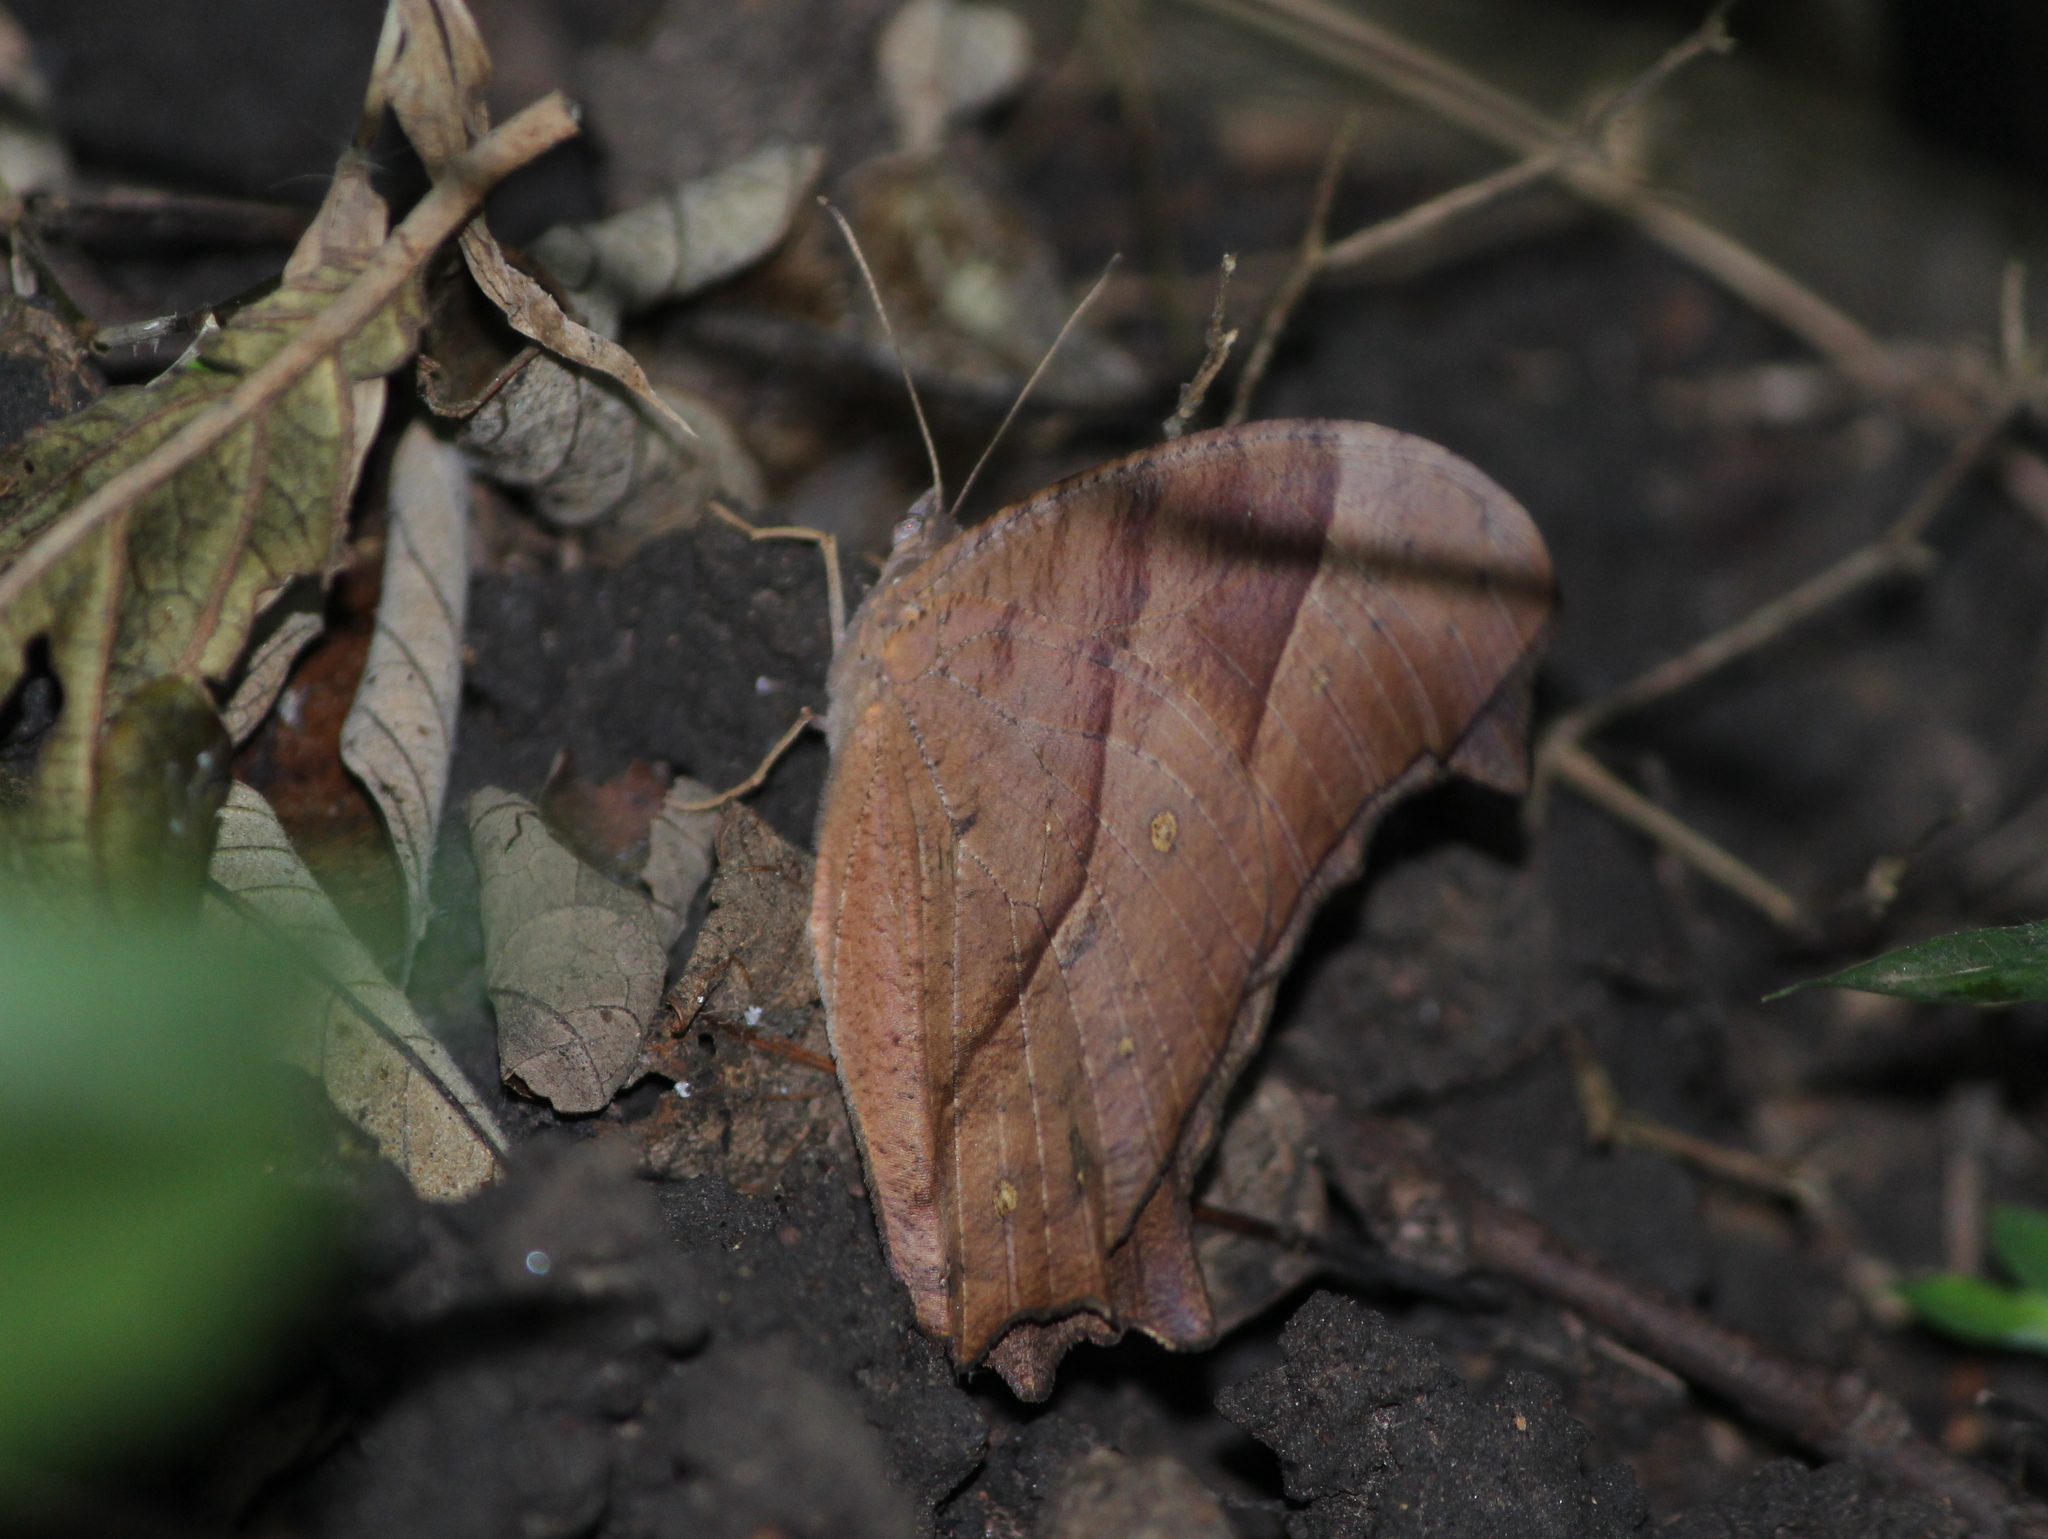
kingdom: Animalia
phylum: Arthropoda
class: Insecta
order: Lepidoptera
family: Nymphalidae
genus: Melanitis
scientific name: Melanitis leda
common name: Twilight brown
